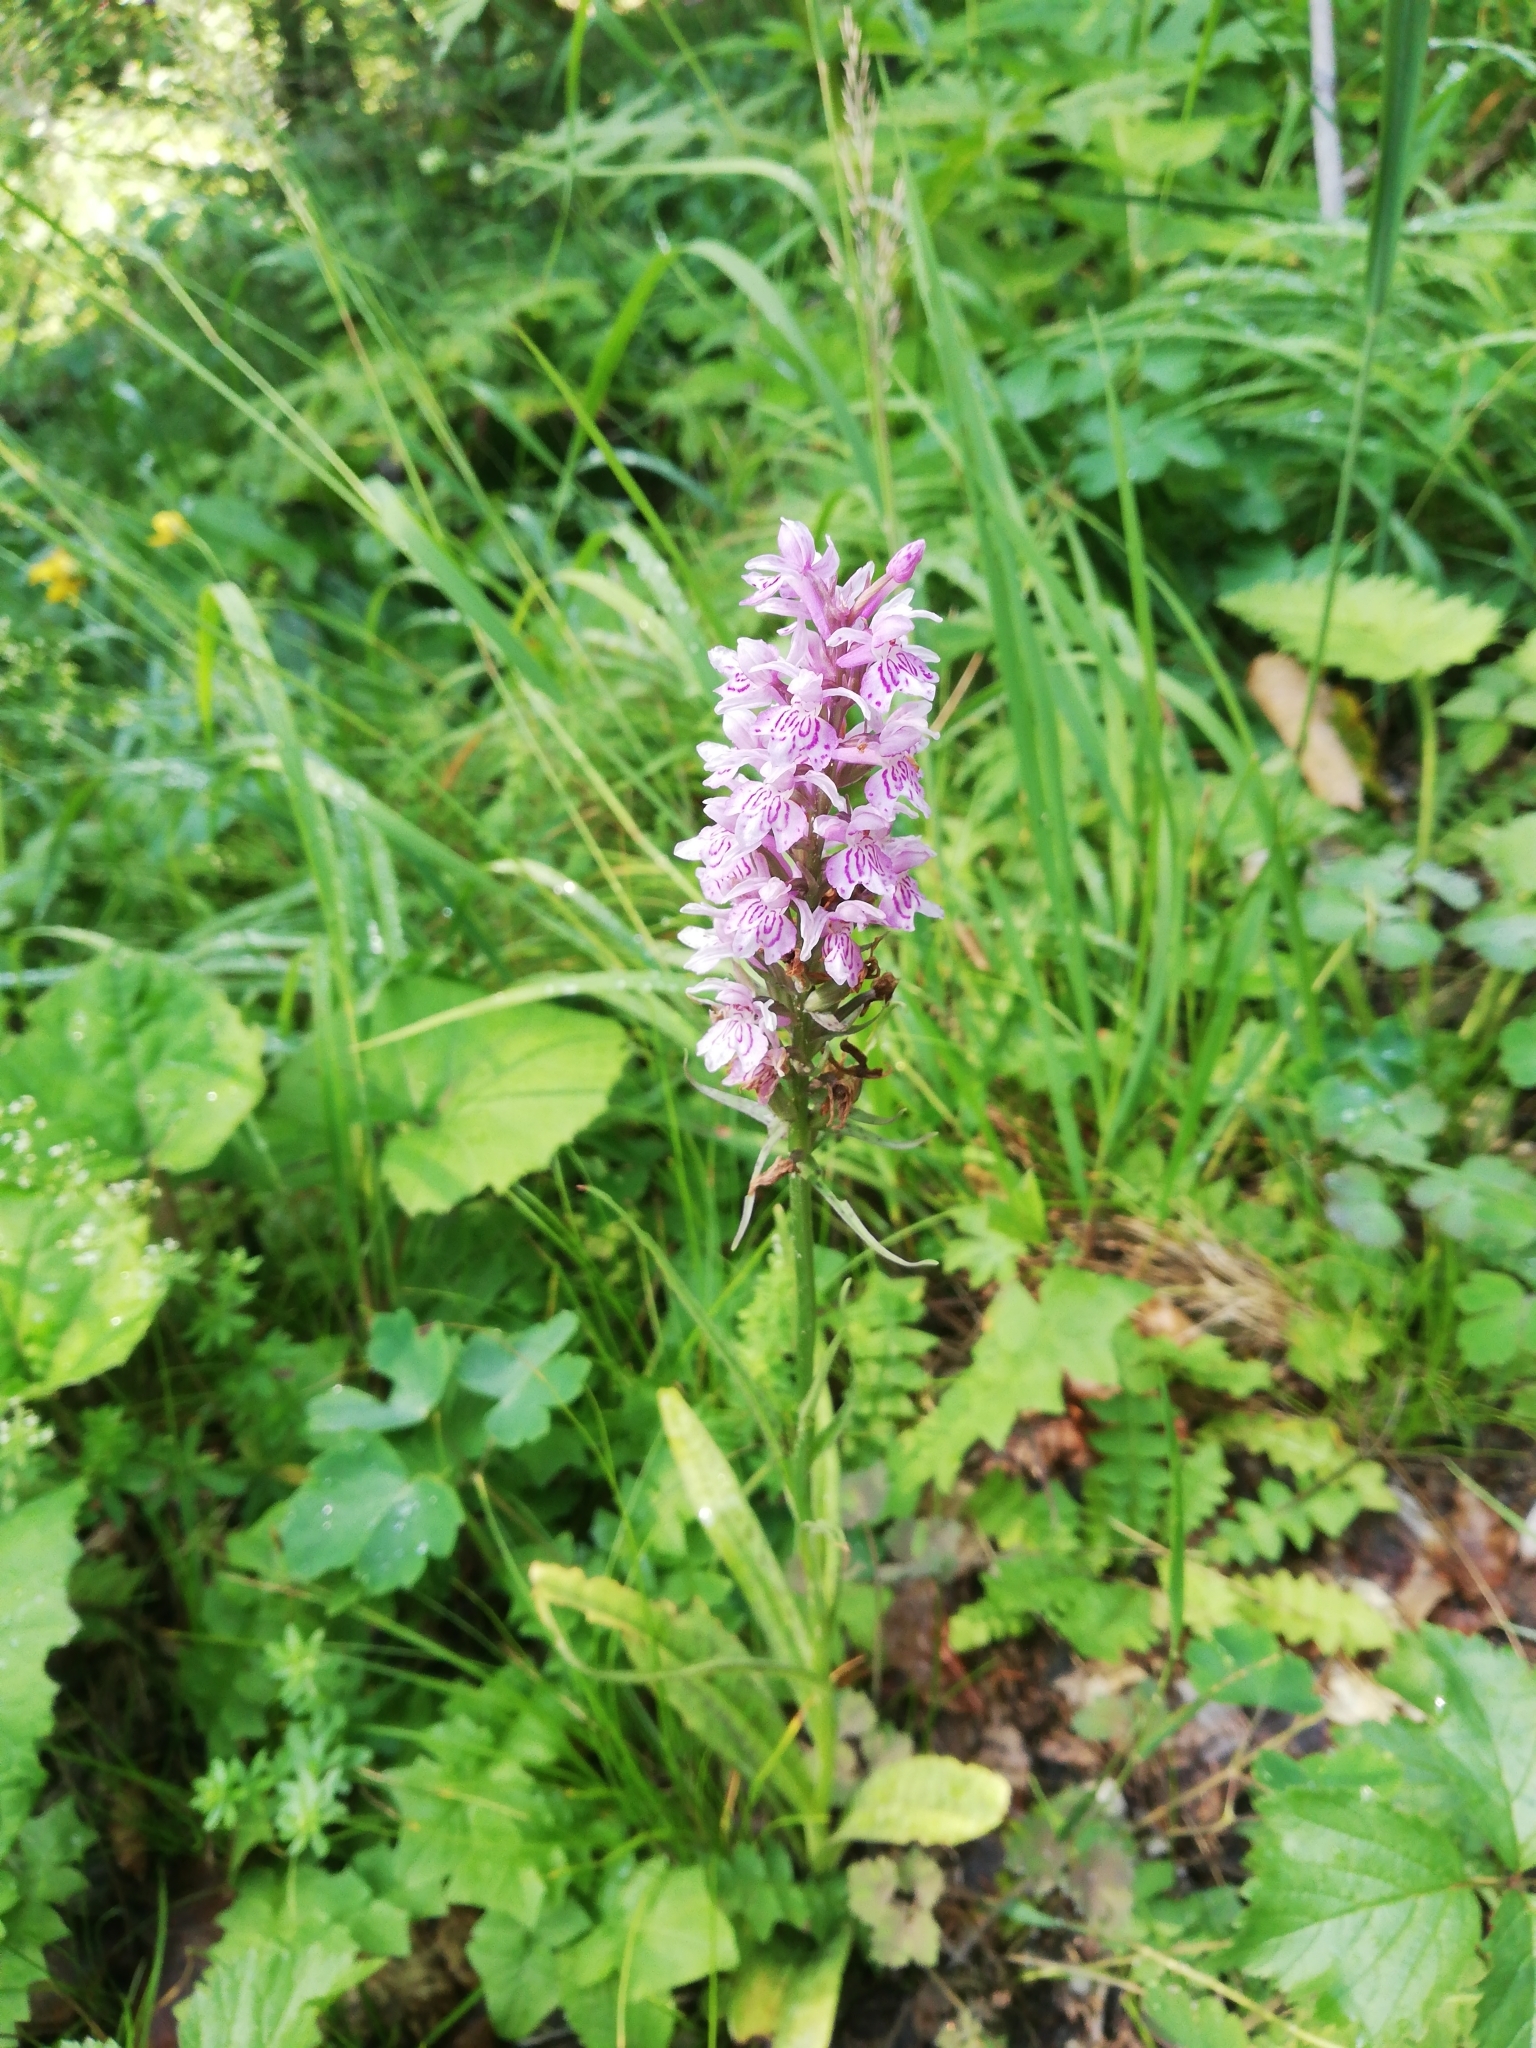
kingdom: Plantae
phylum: Tracheophyta
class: Liliopsida
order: Asparagales
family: Orchidaceae
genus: Dactylorhiza
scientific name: Dactylorhiza maculata
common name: Heath spotted-orchid
